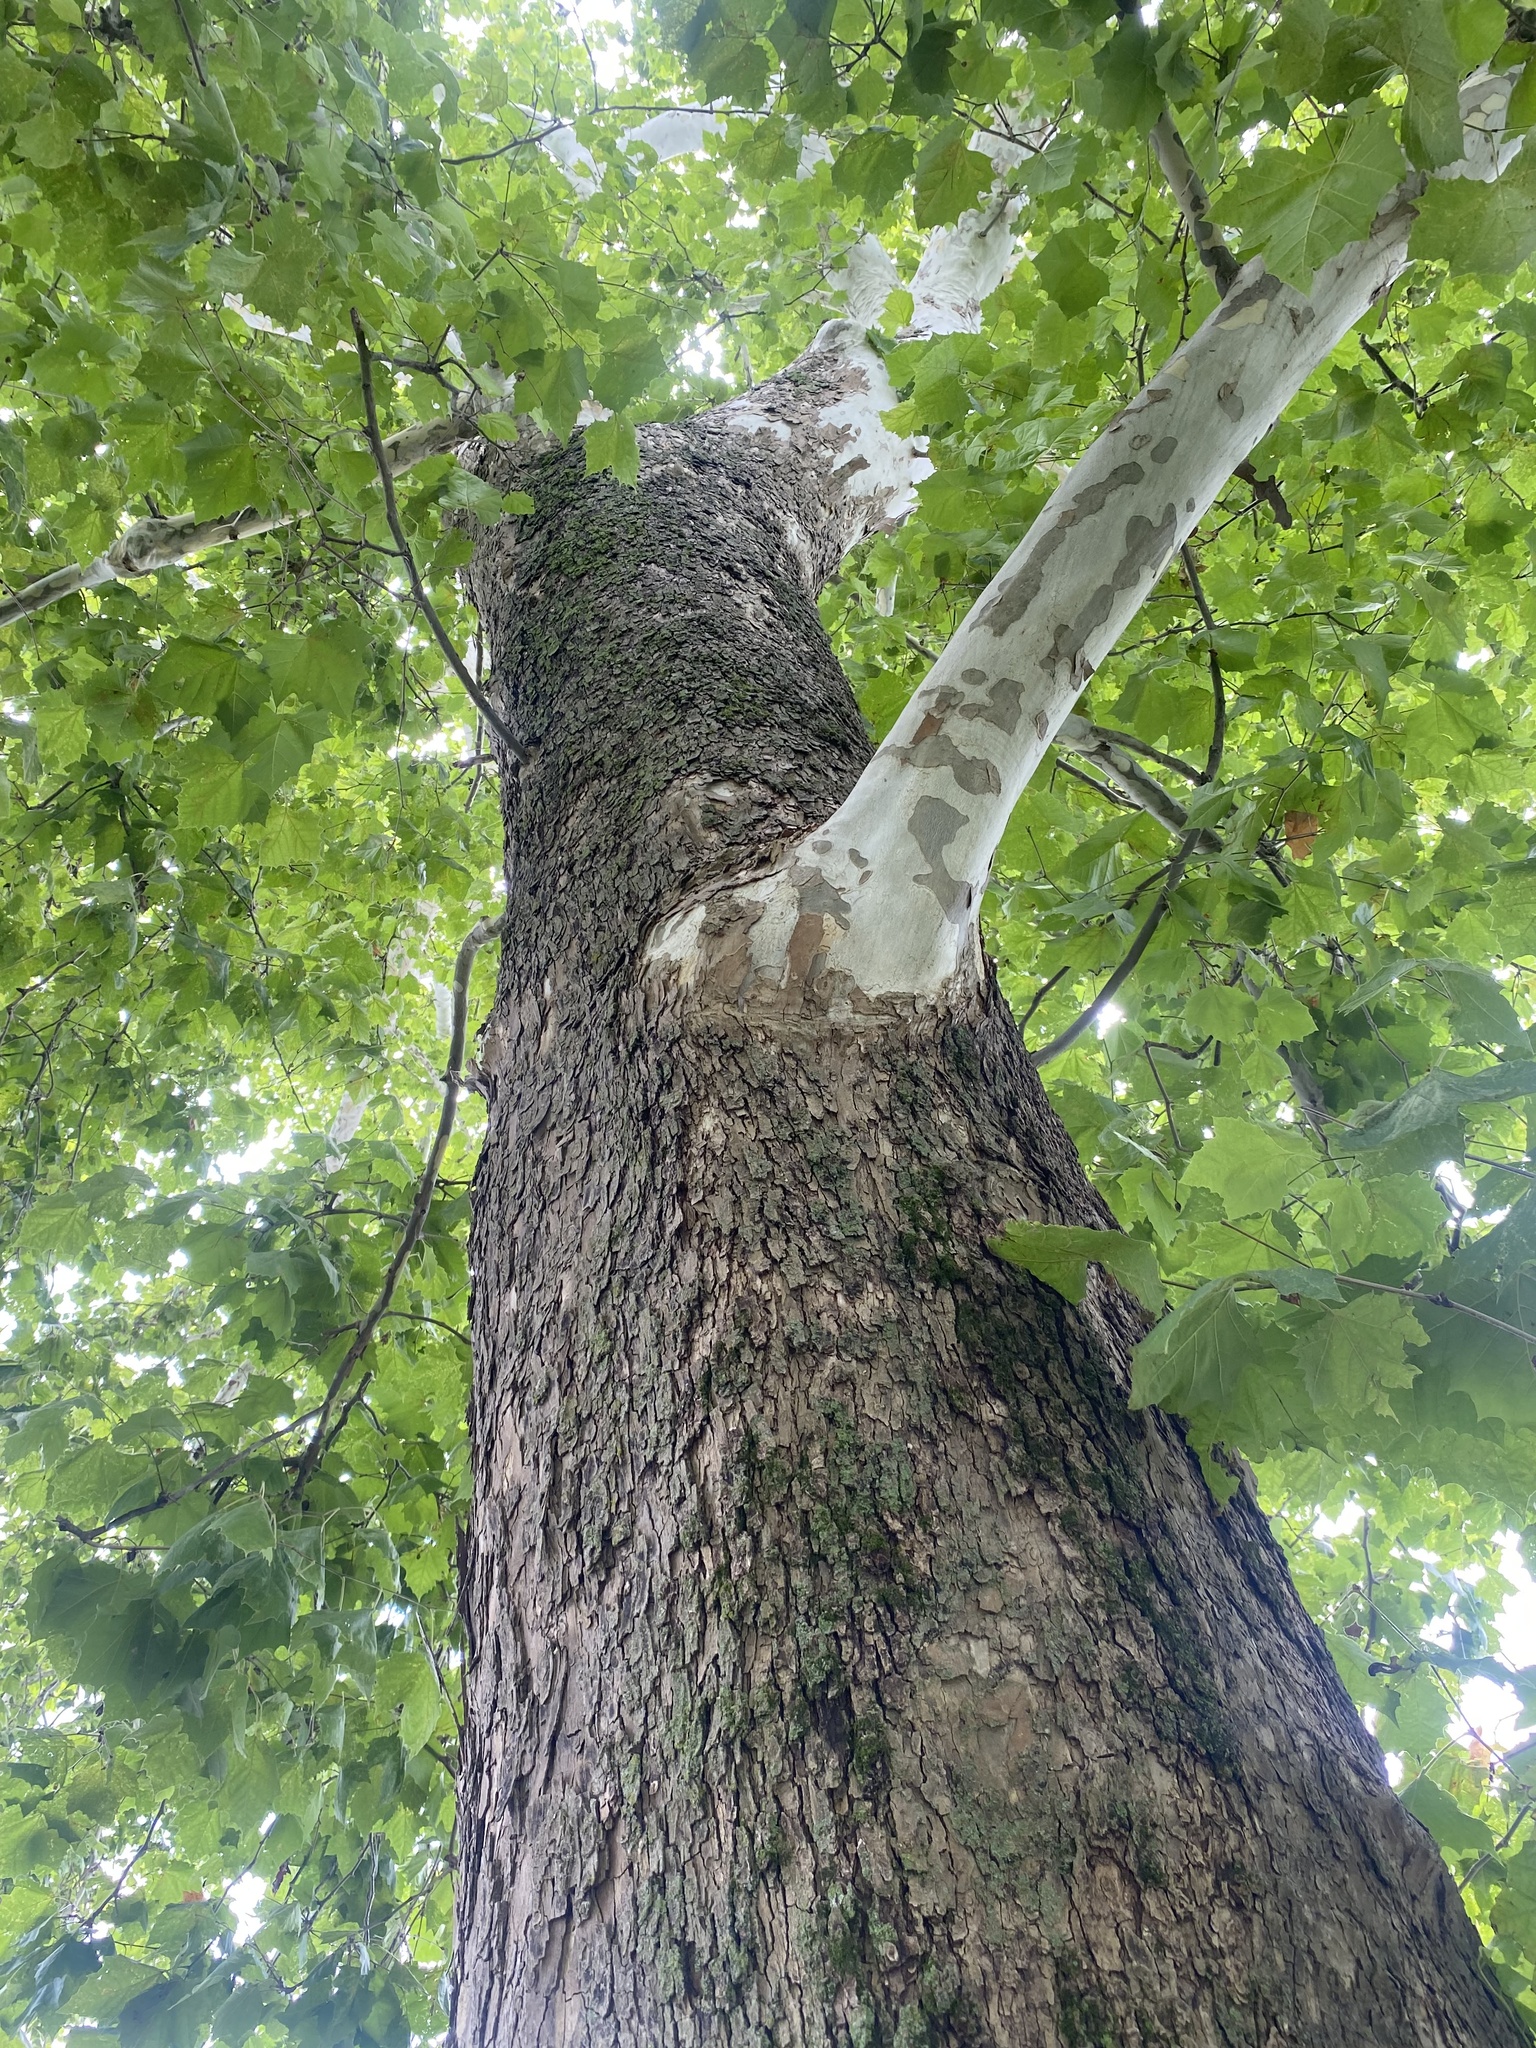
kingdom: Plantae
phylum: Tracheophyta
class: Magnoliopsida
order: Proteales
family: Platanaceae
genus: Platanus
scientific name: Platanus occidentalis
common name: American sycamore
